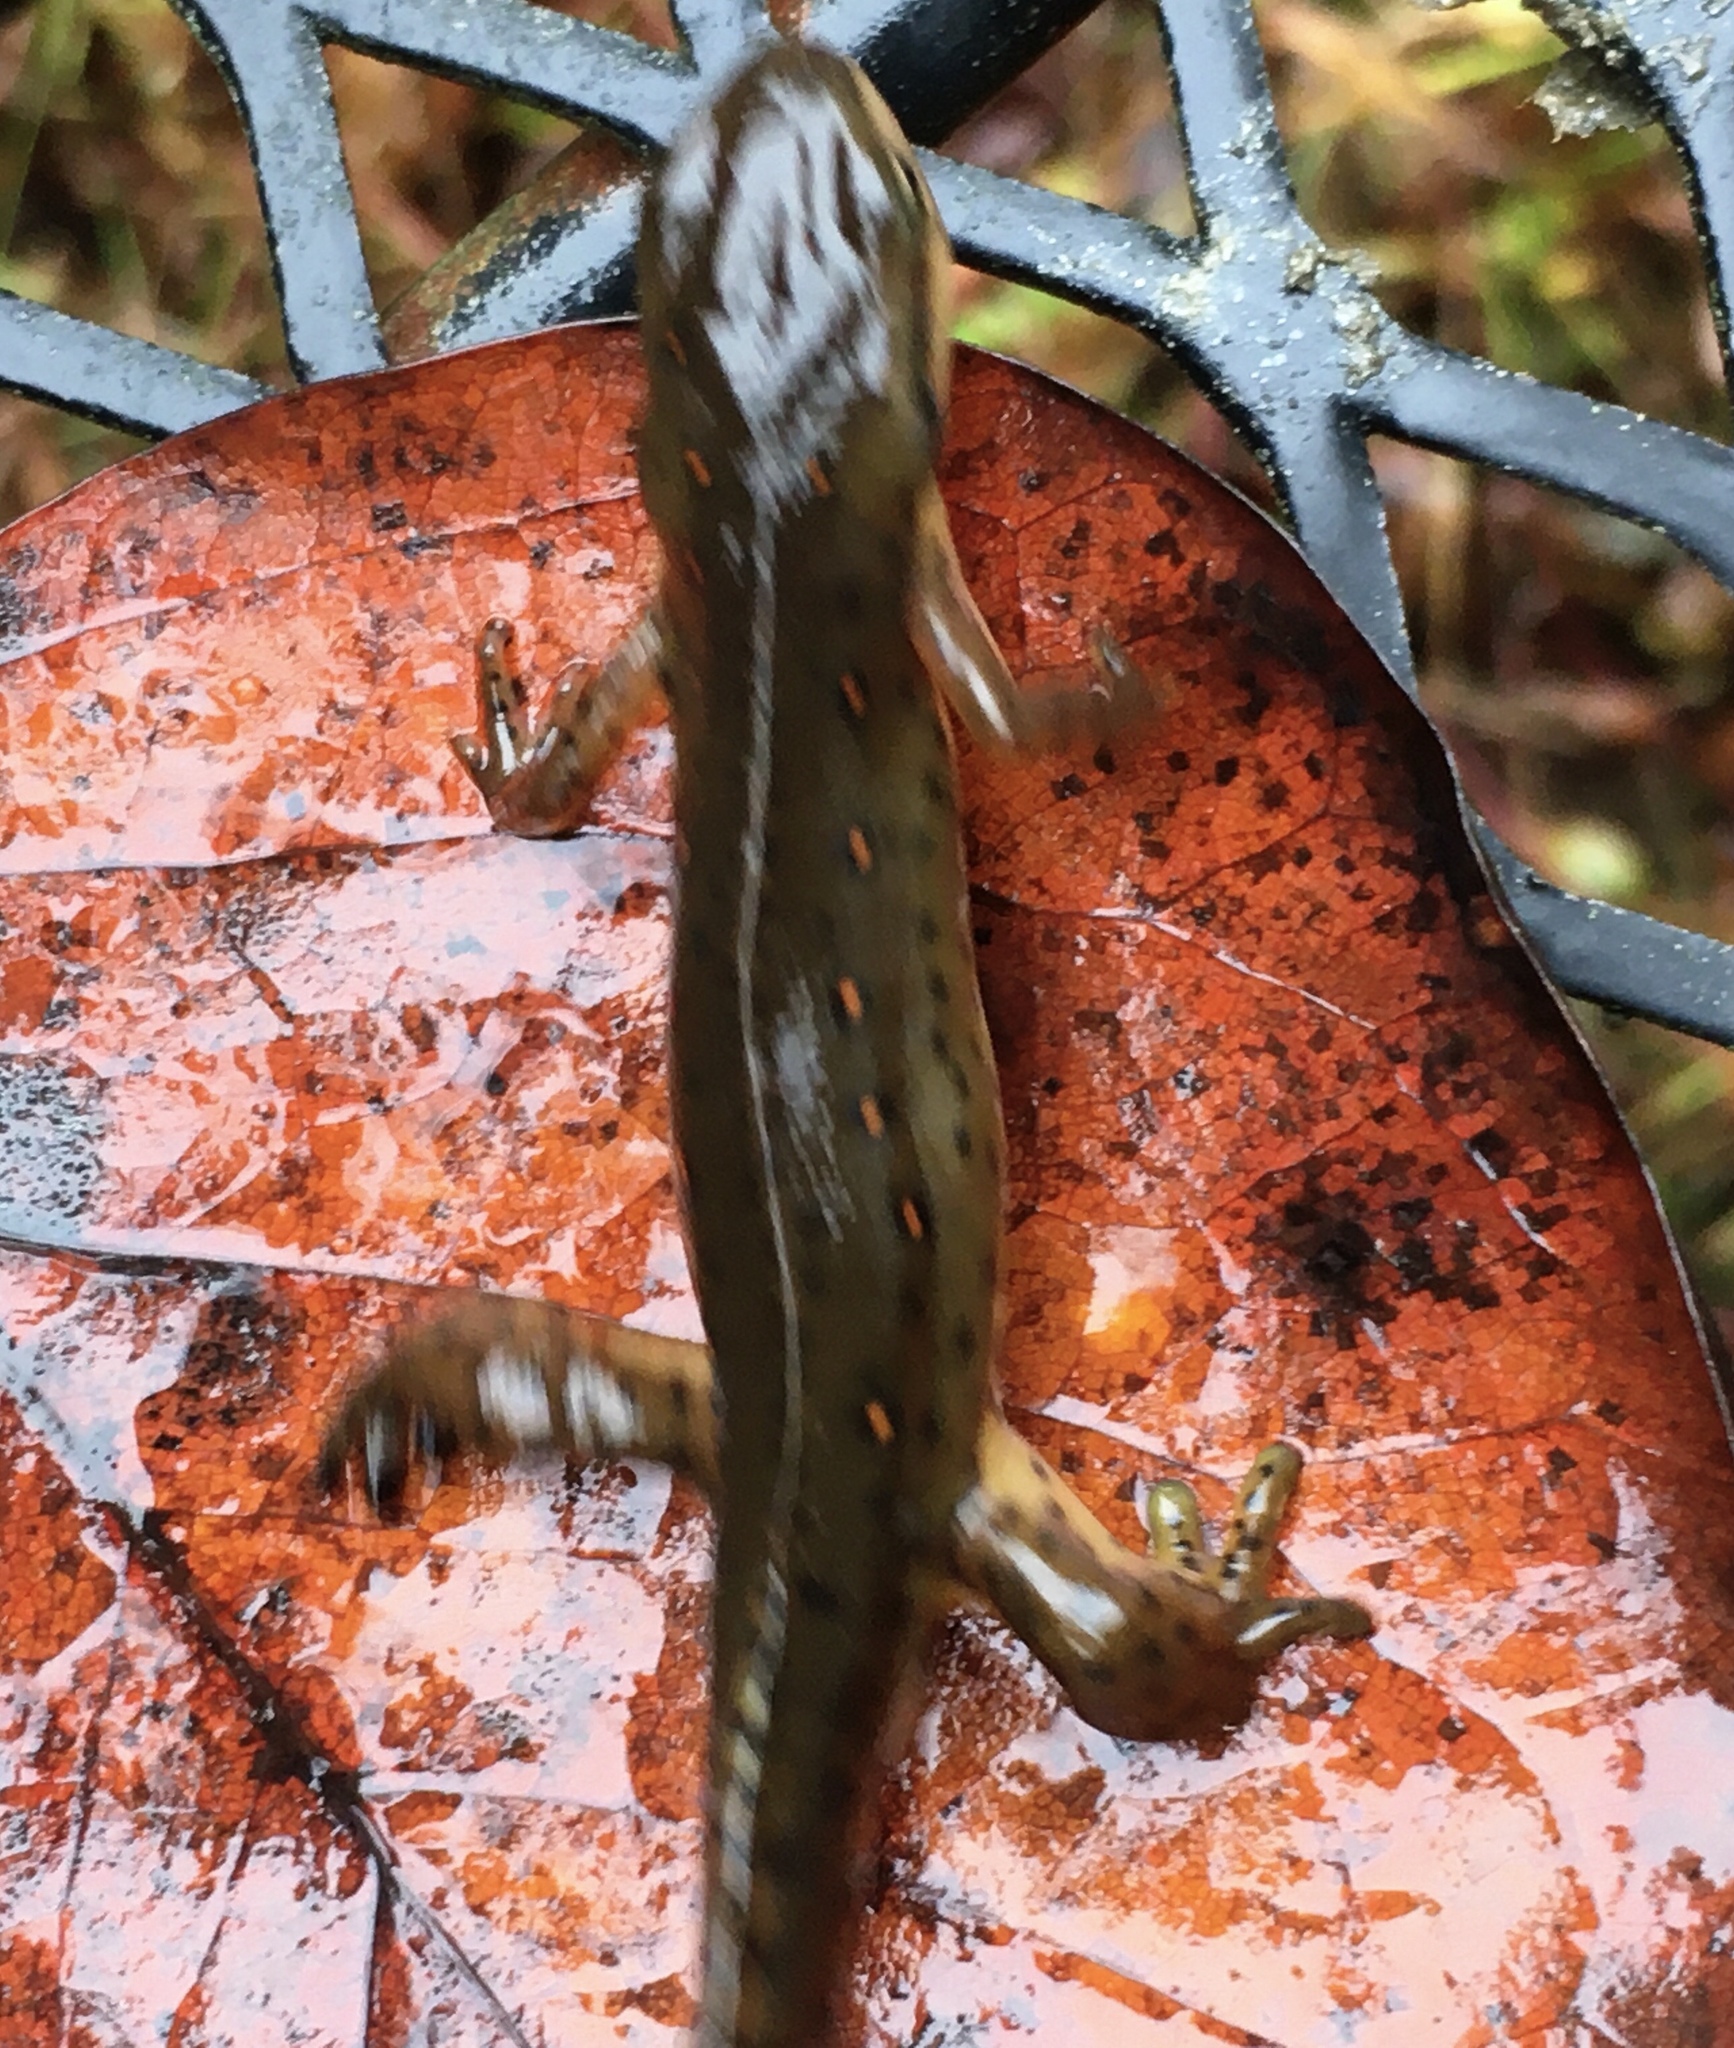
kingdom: Animalia
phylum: Chordata
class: Amphibia
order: Caudata
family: Salamandridae
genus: Notophthalmus
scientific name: Notophthalmus viridescens
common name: Eastern newt
